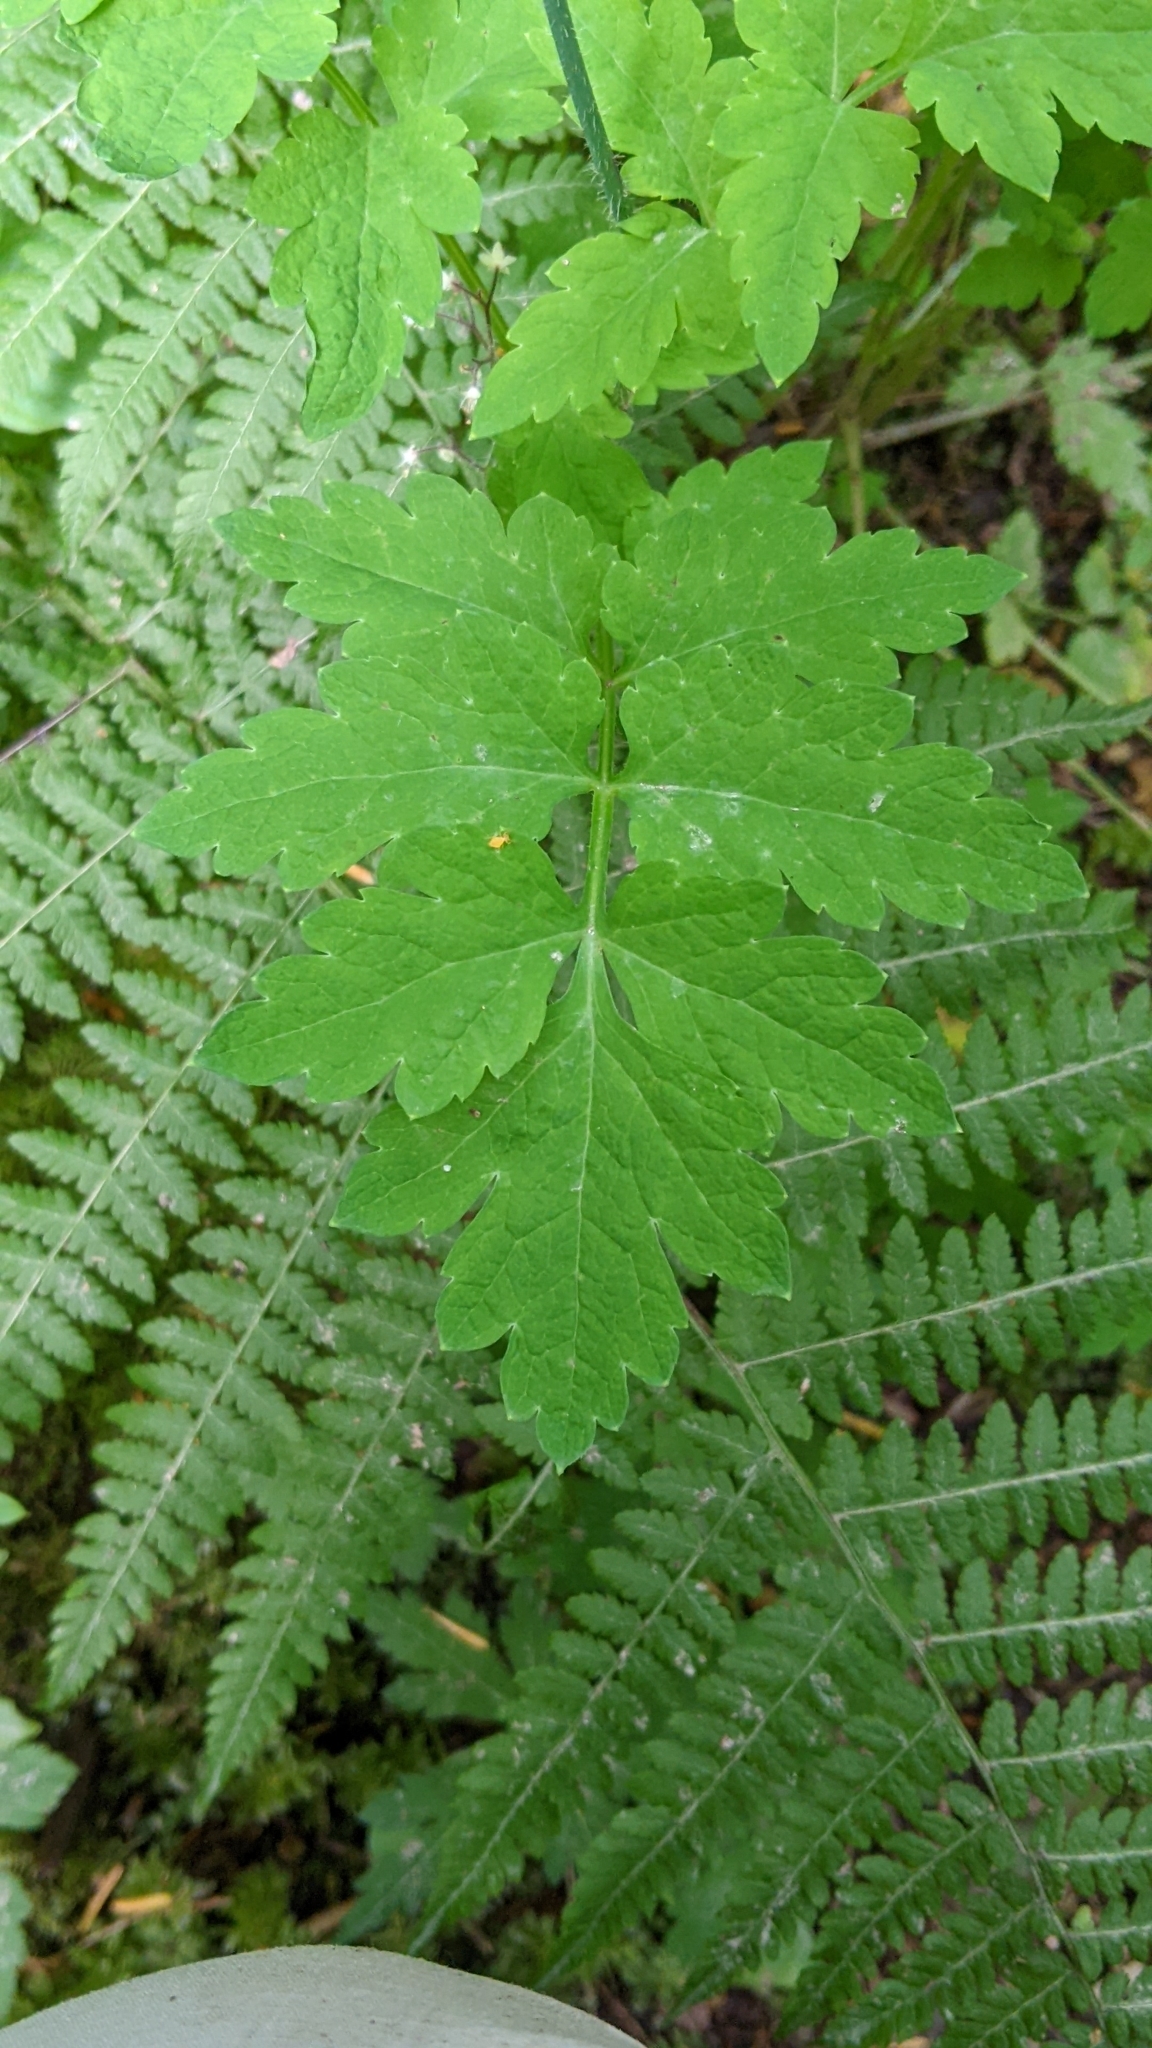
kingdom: Plantae
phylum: Tracheophyta
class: Magnoliopsida
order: Ranunculales
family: Papaveraceae
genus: Papaver
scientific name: Papaver cambricum
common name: Poppy
